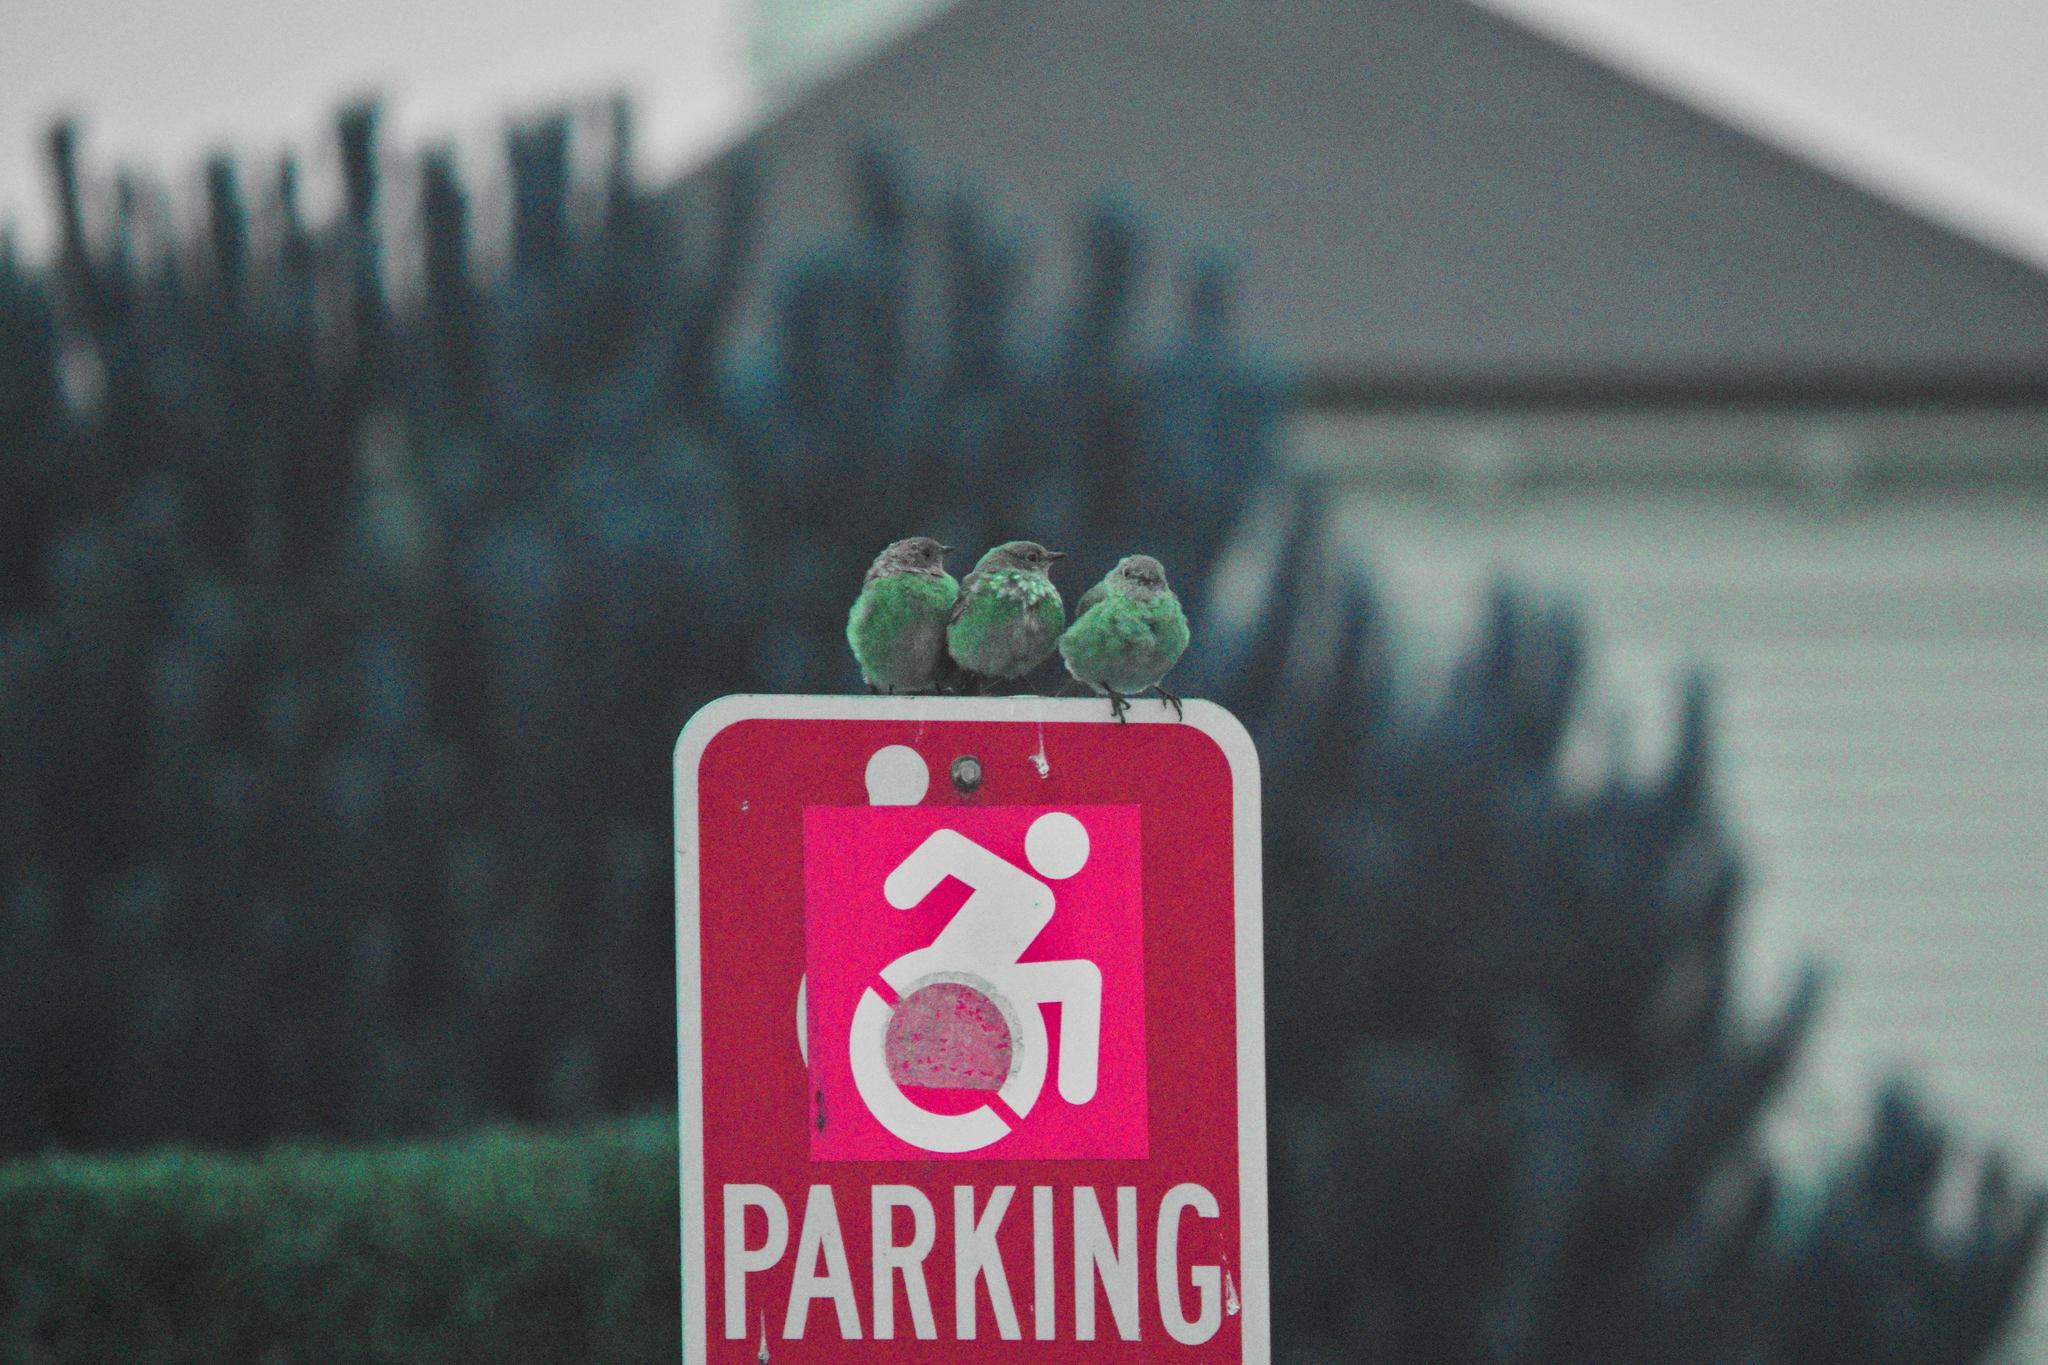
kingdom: Animalia
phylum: Chordata
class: Aves
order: Passeriformes
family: Turdidae
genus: Sialia
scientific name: Sialia mexicana
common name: Western bluebird
